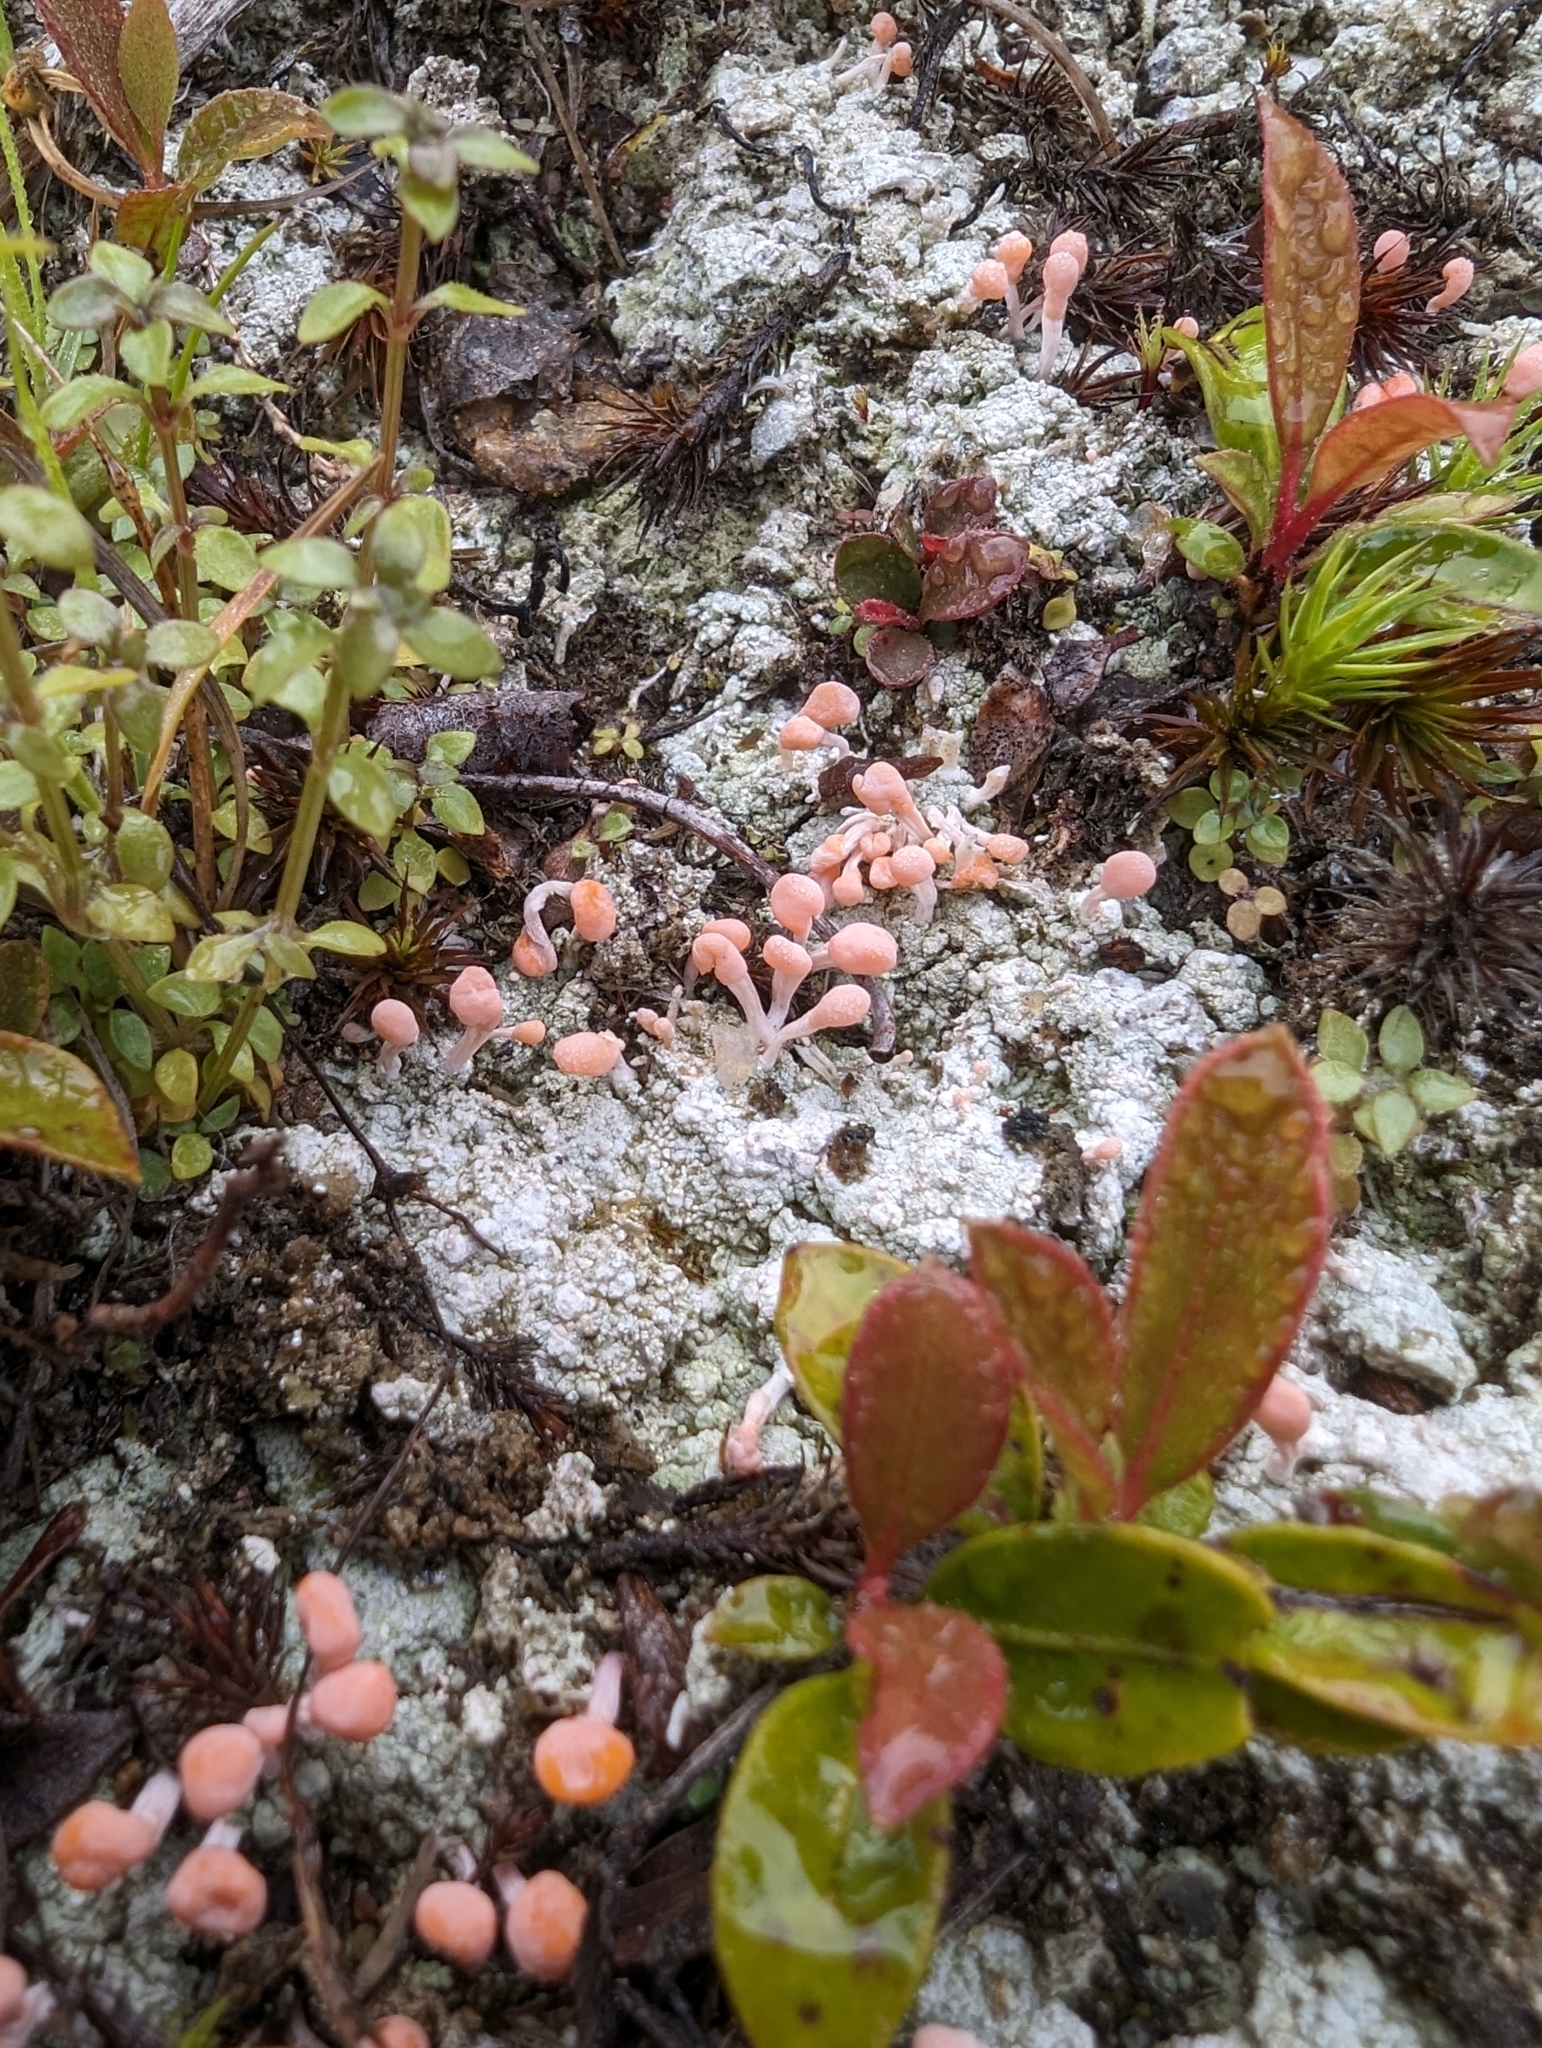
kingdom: Fungi
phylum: Ascomycota
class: Lecanoromycetes
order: Pertusariales
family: Icmadophilaceae
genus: Dibaeis
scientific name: Dibaeis baeomyces
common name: Pink earth lichen
